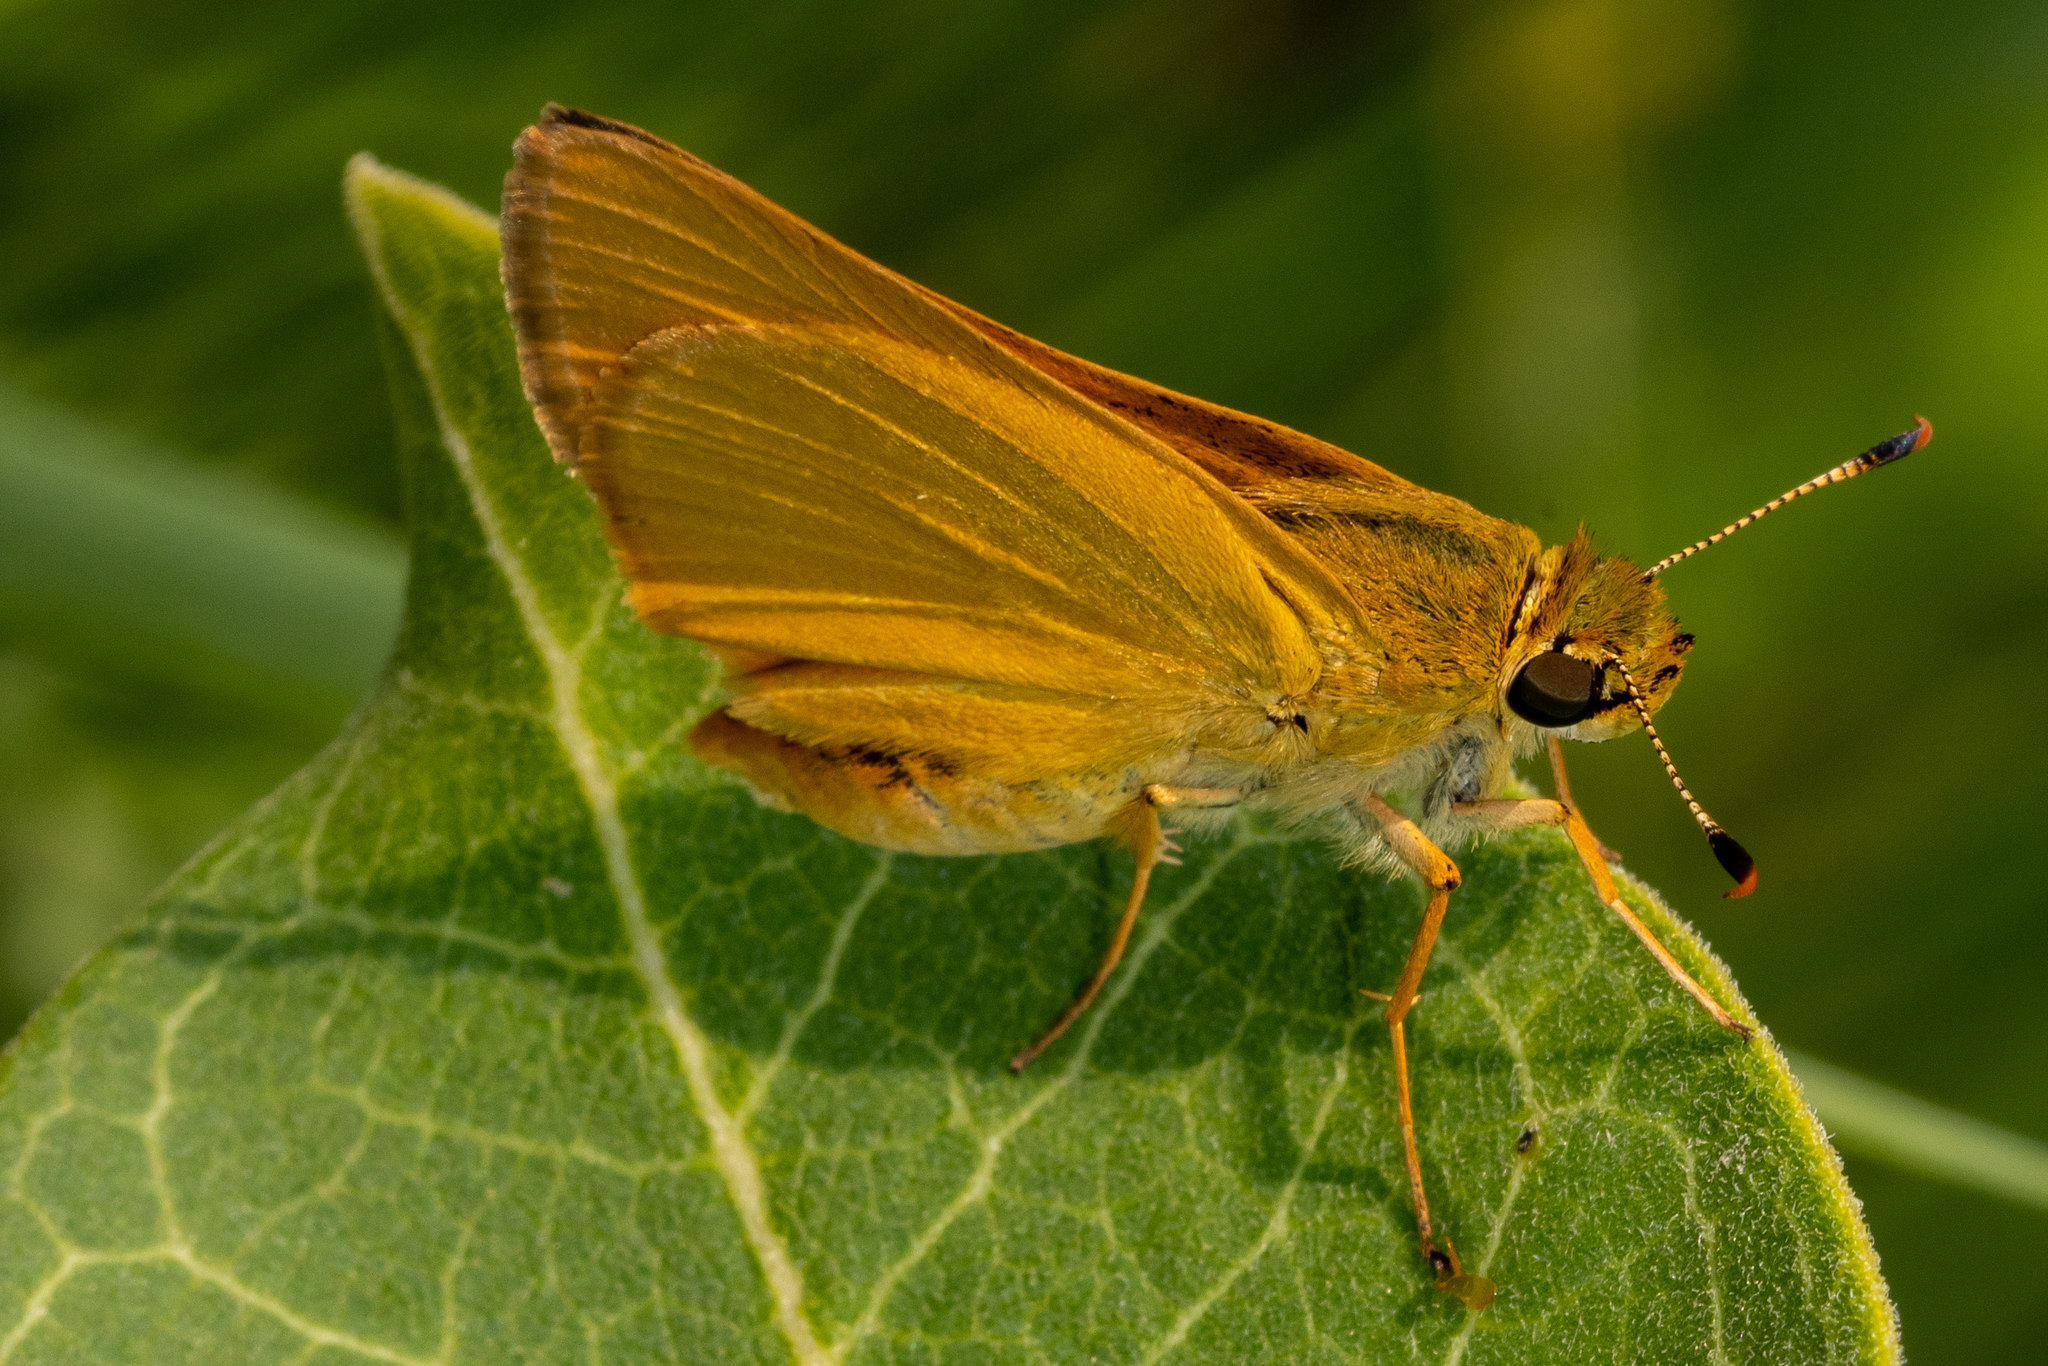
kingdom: Animalia
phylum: Arthropoda
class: Insecta
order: Lepidoptera
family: Hesperiidae
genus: Atrytone
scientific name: Atrytone delaware
